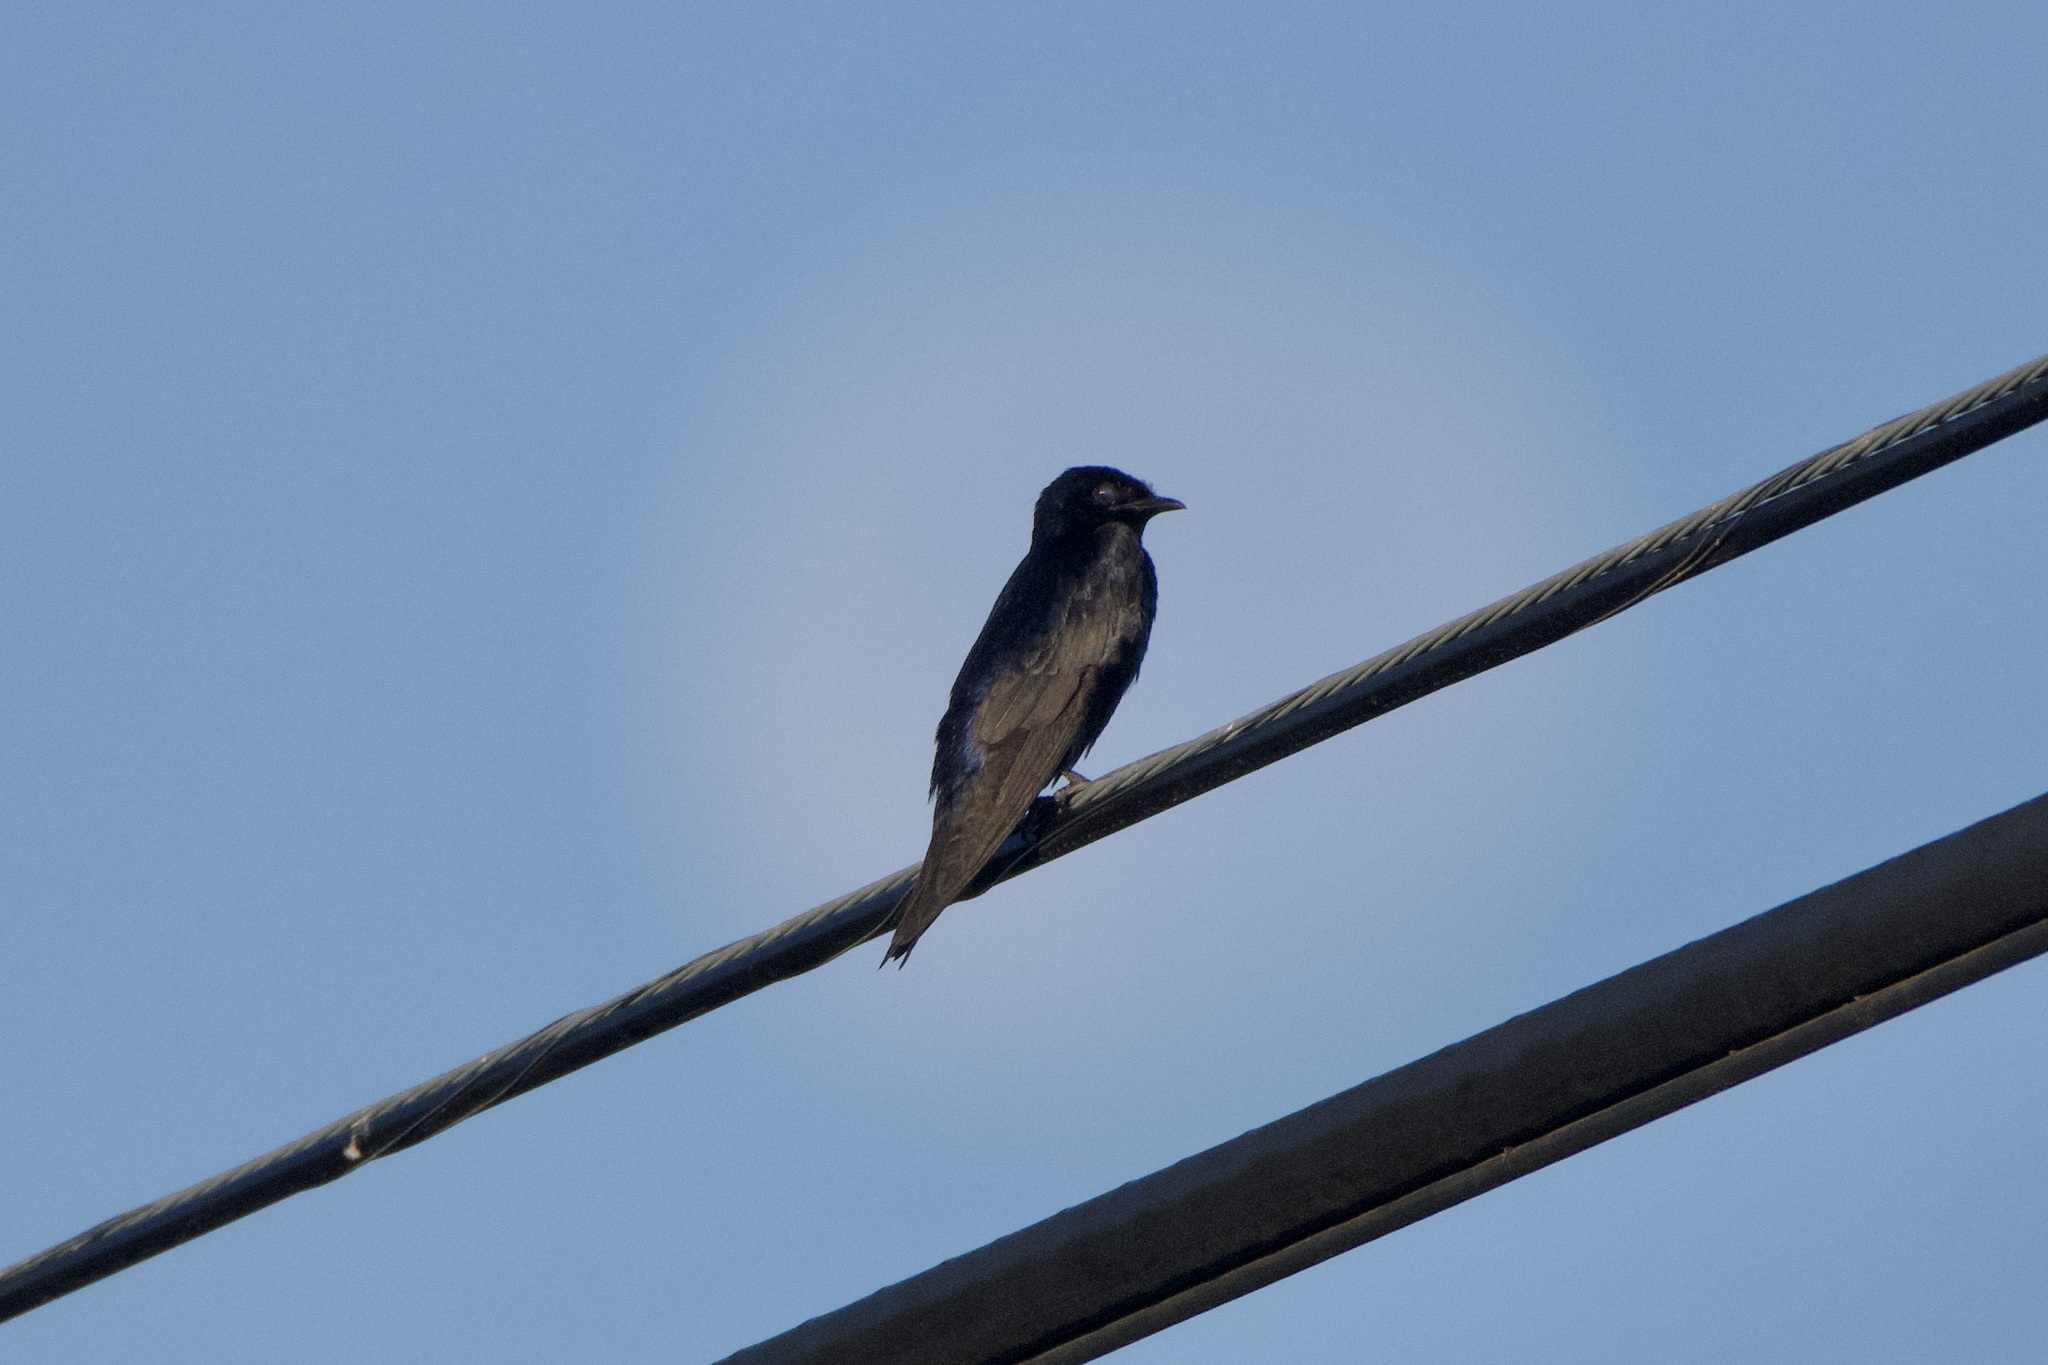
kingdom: Animalia
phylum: Chordata
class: Aves
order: Passeriformes
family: Hirundinidae
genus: Progne
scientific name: Progne subis
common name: Purple martin
